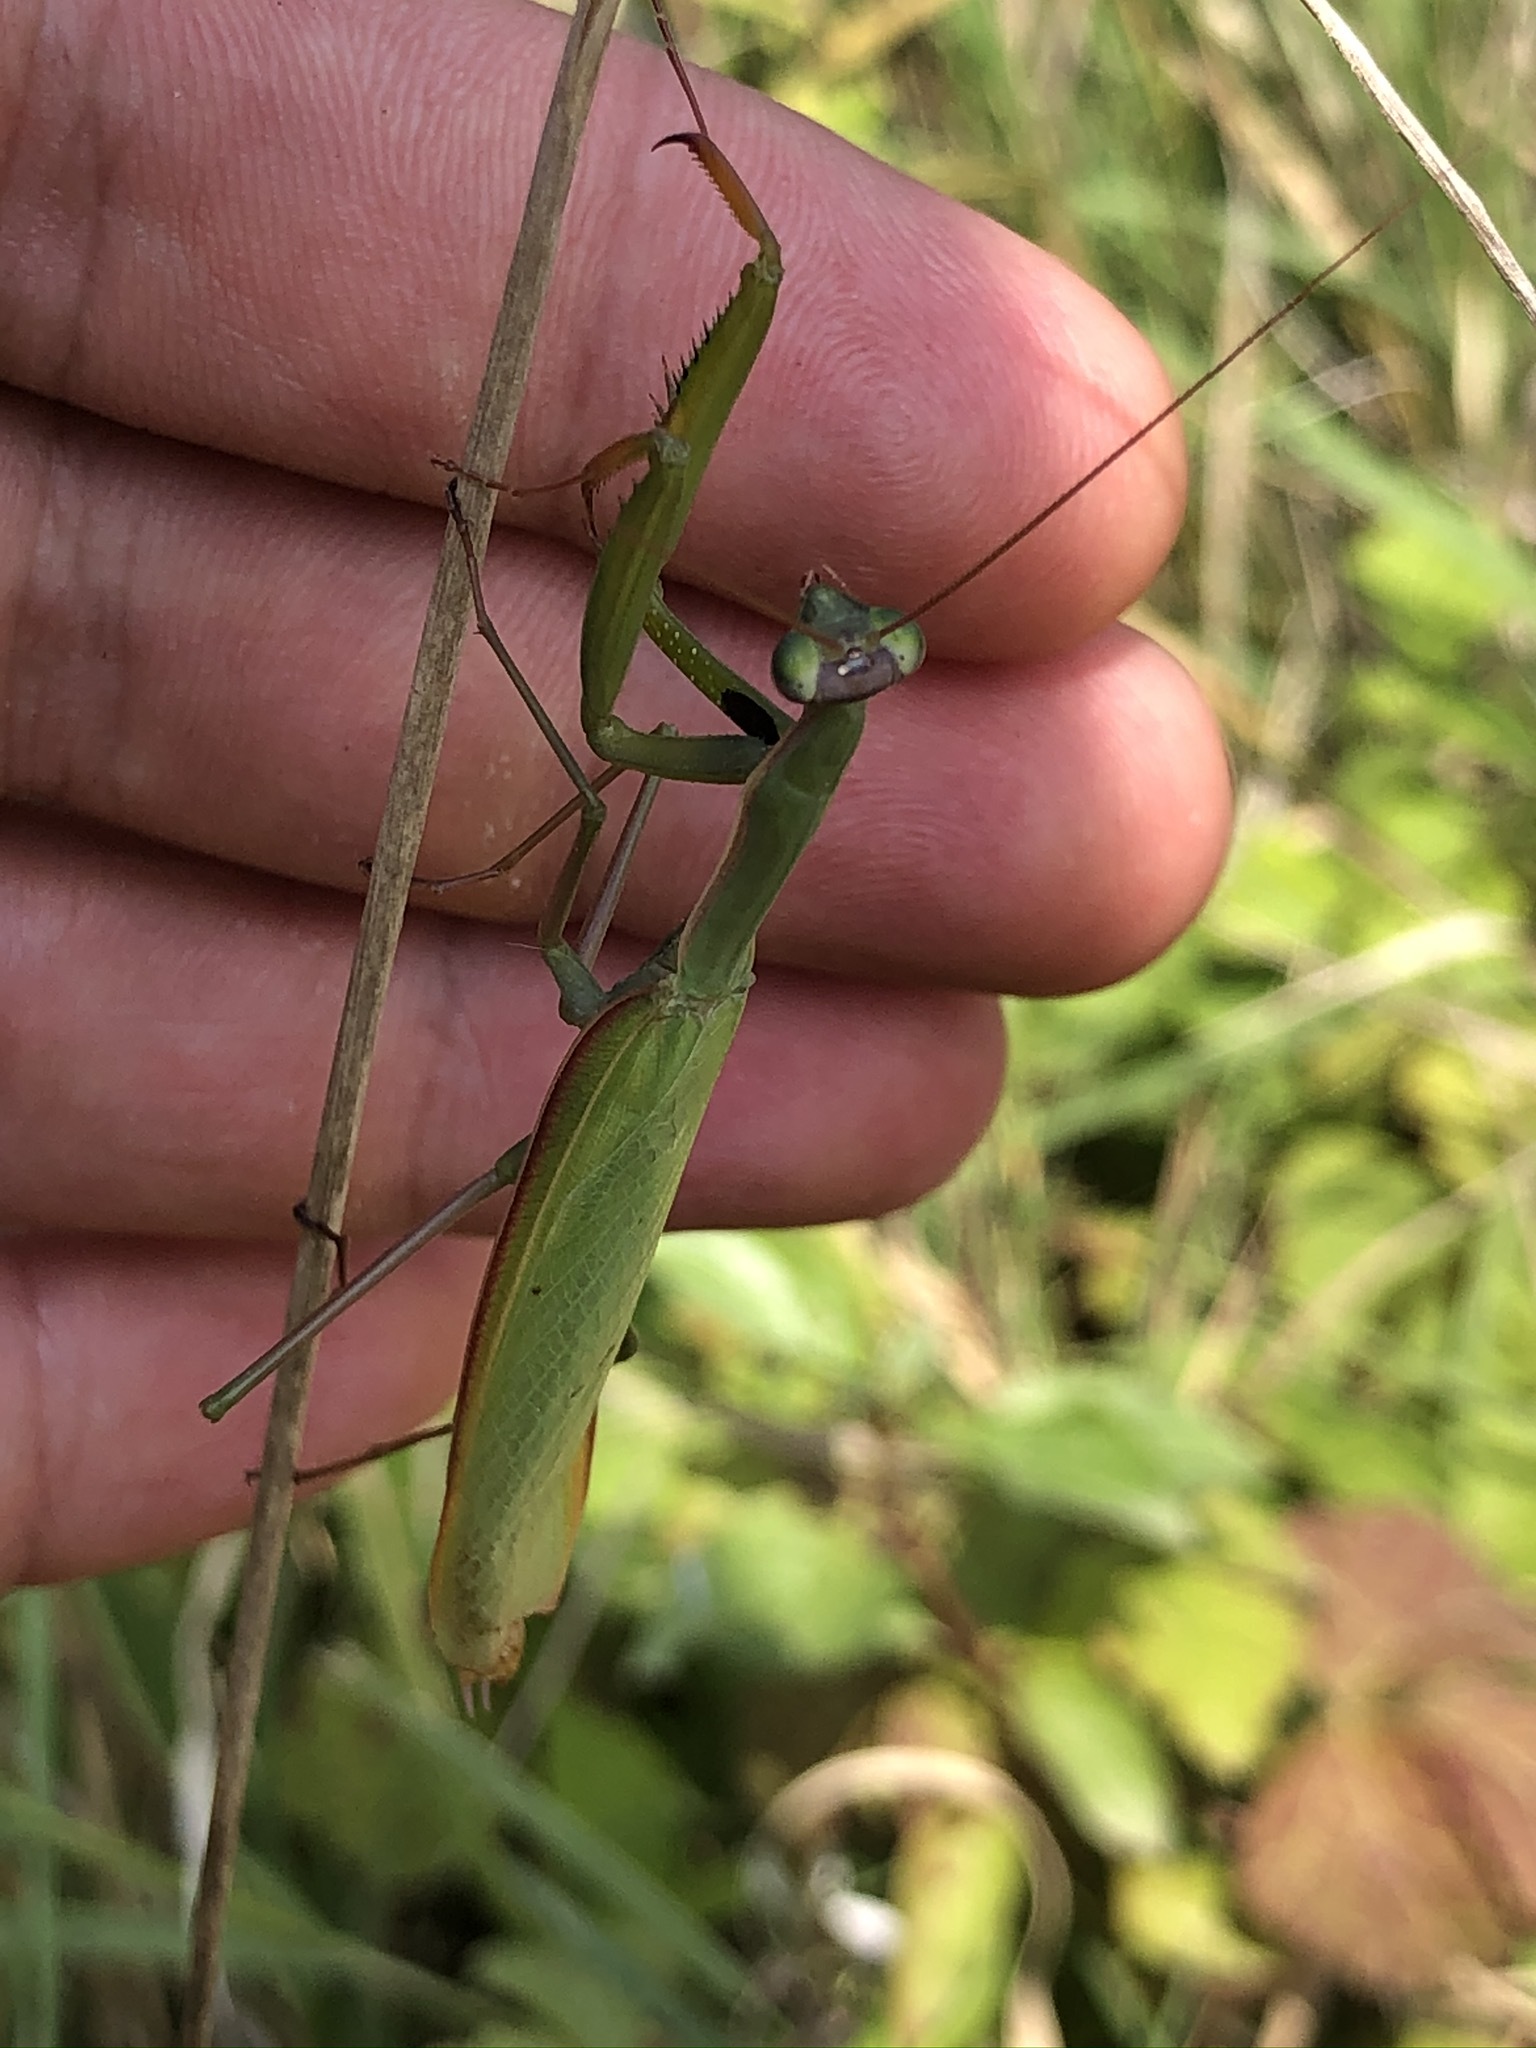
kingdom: Animalia
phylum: Arthropoda
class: Insecta
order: Mantodea
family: Mantidae
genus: Mantis
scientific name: Mantis religiosa
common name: Praying mantis
